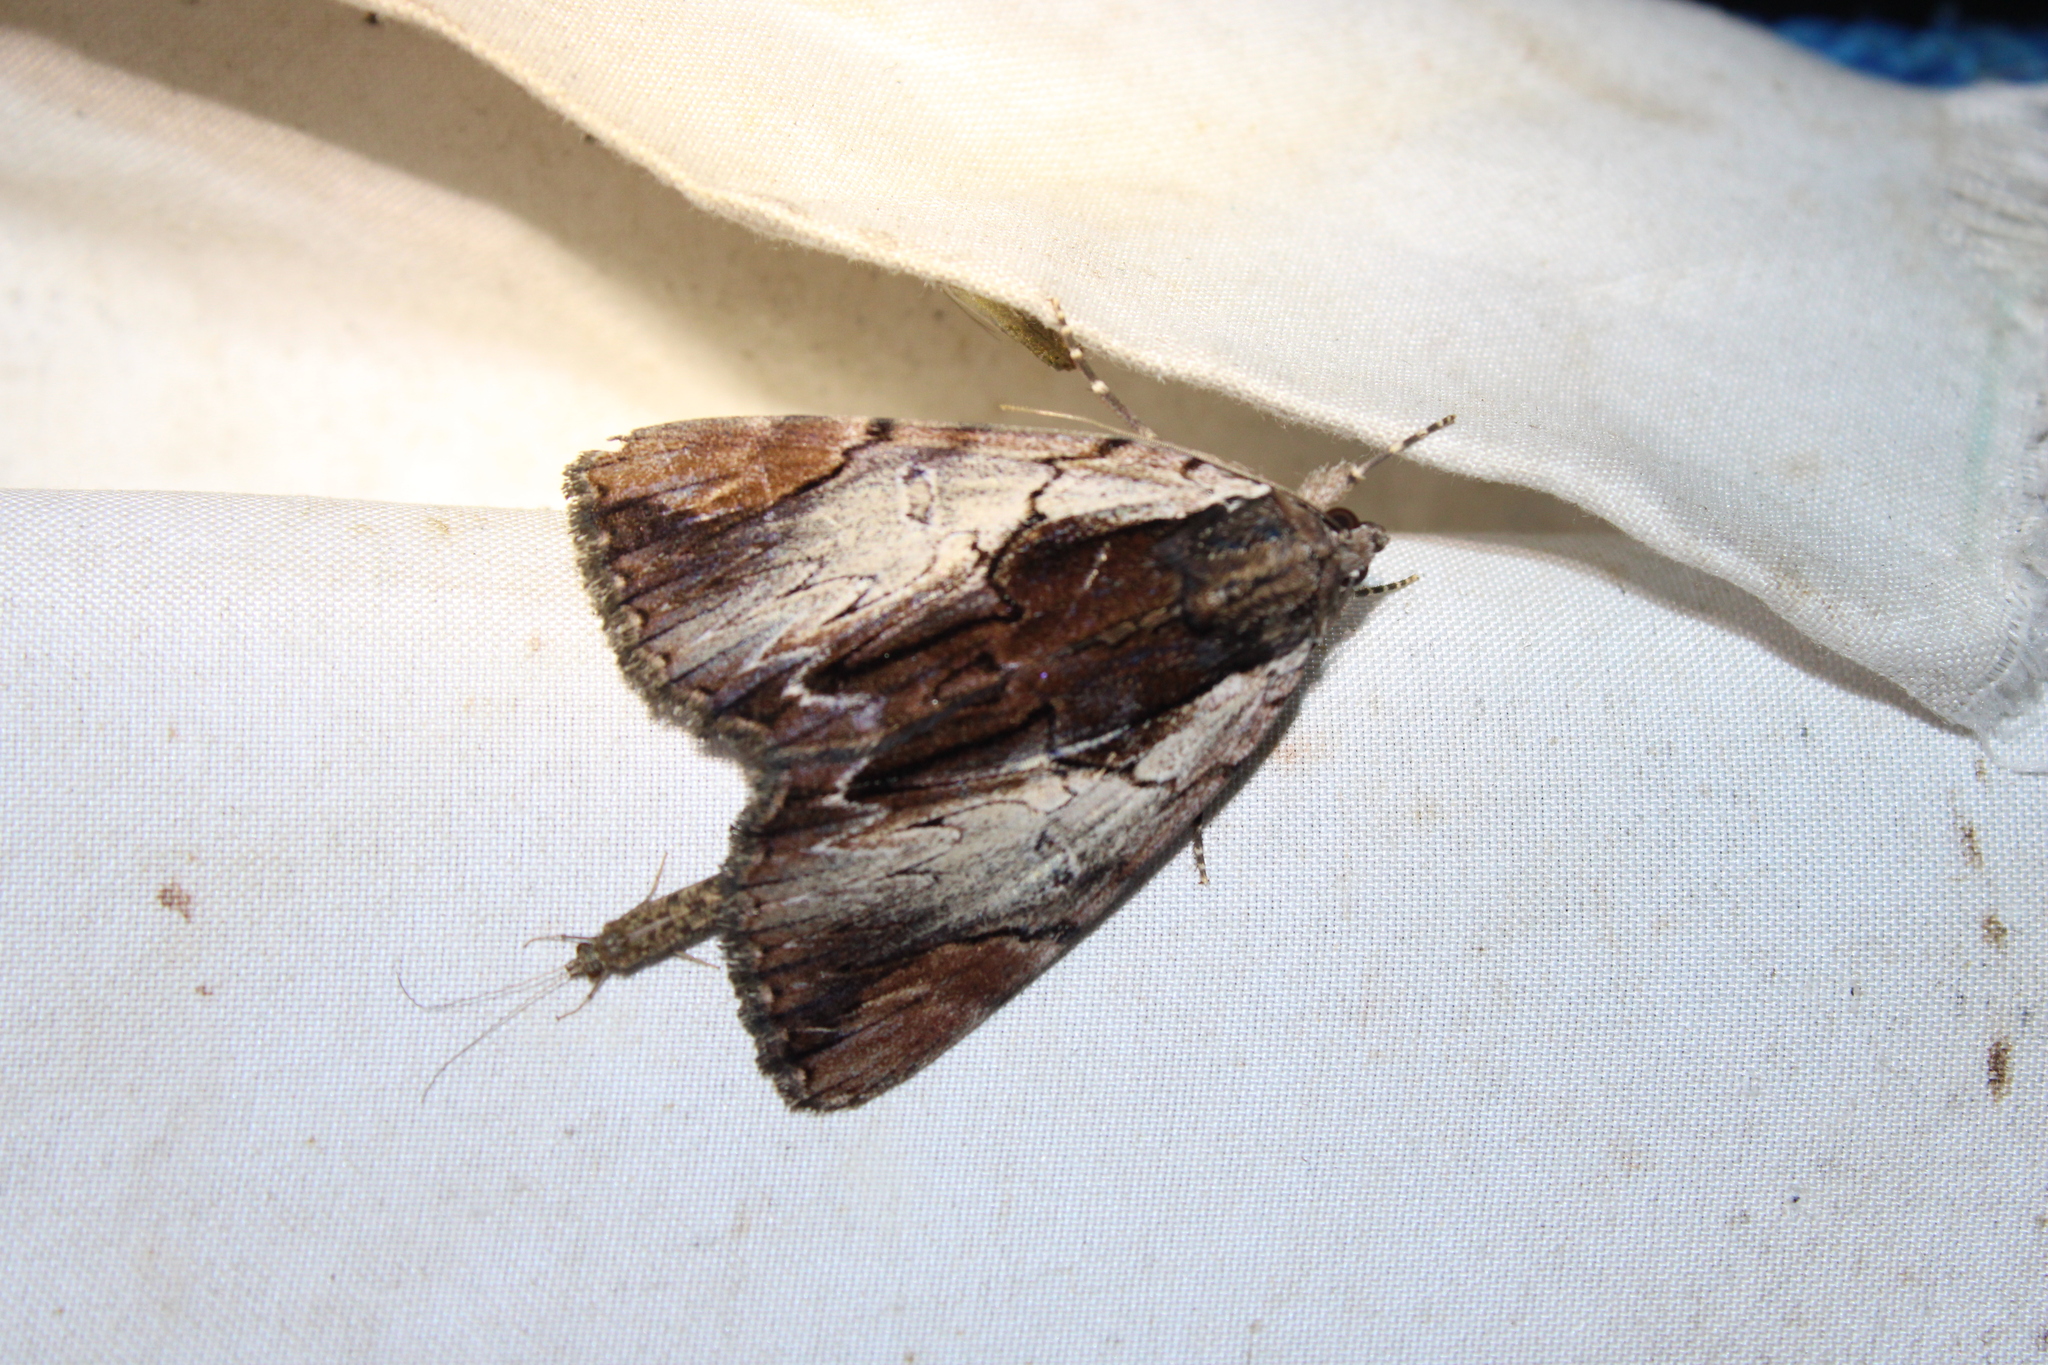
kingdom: Animalia
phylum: Arthropoda
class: Insecta
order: Lepidoptera
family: Erebidae
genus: Catocala
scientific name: Catocala ultronia
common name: Ultronia underwing
